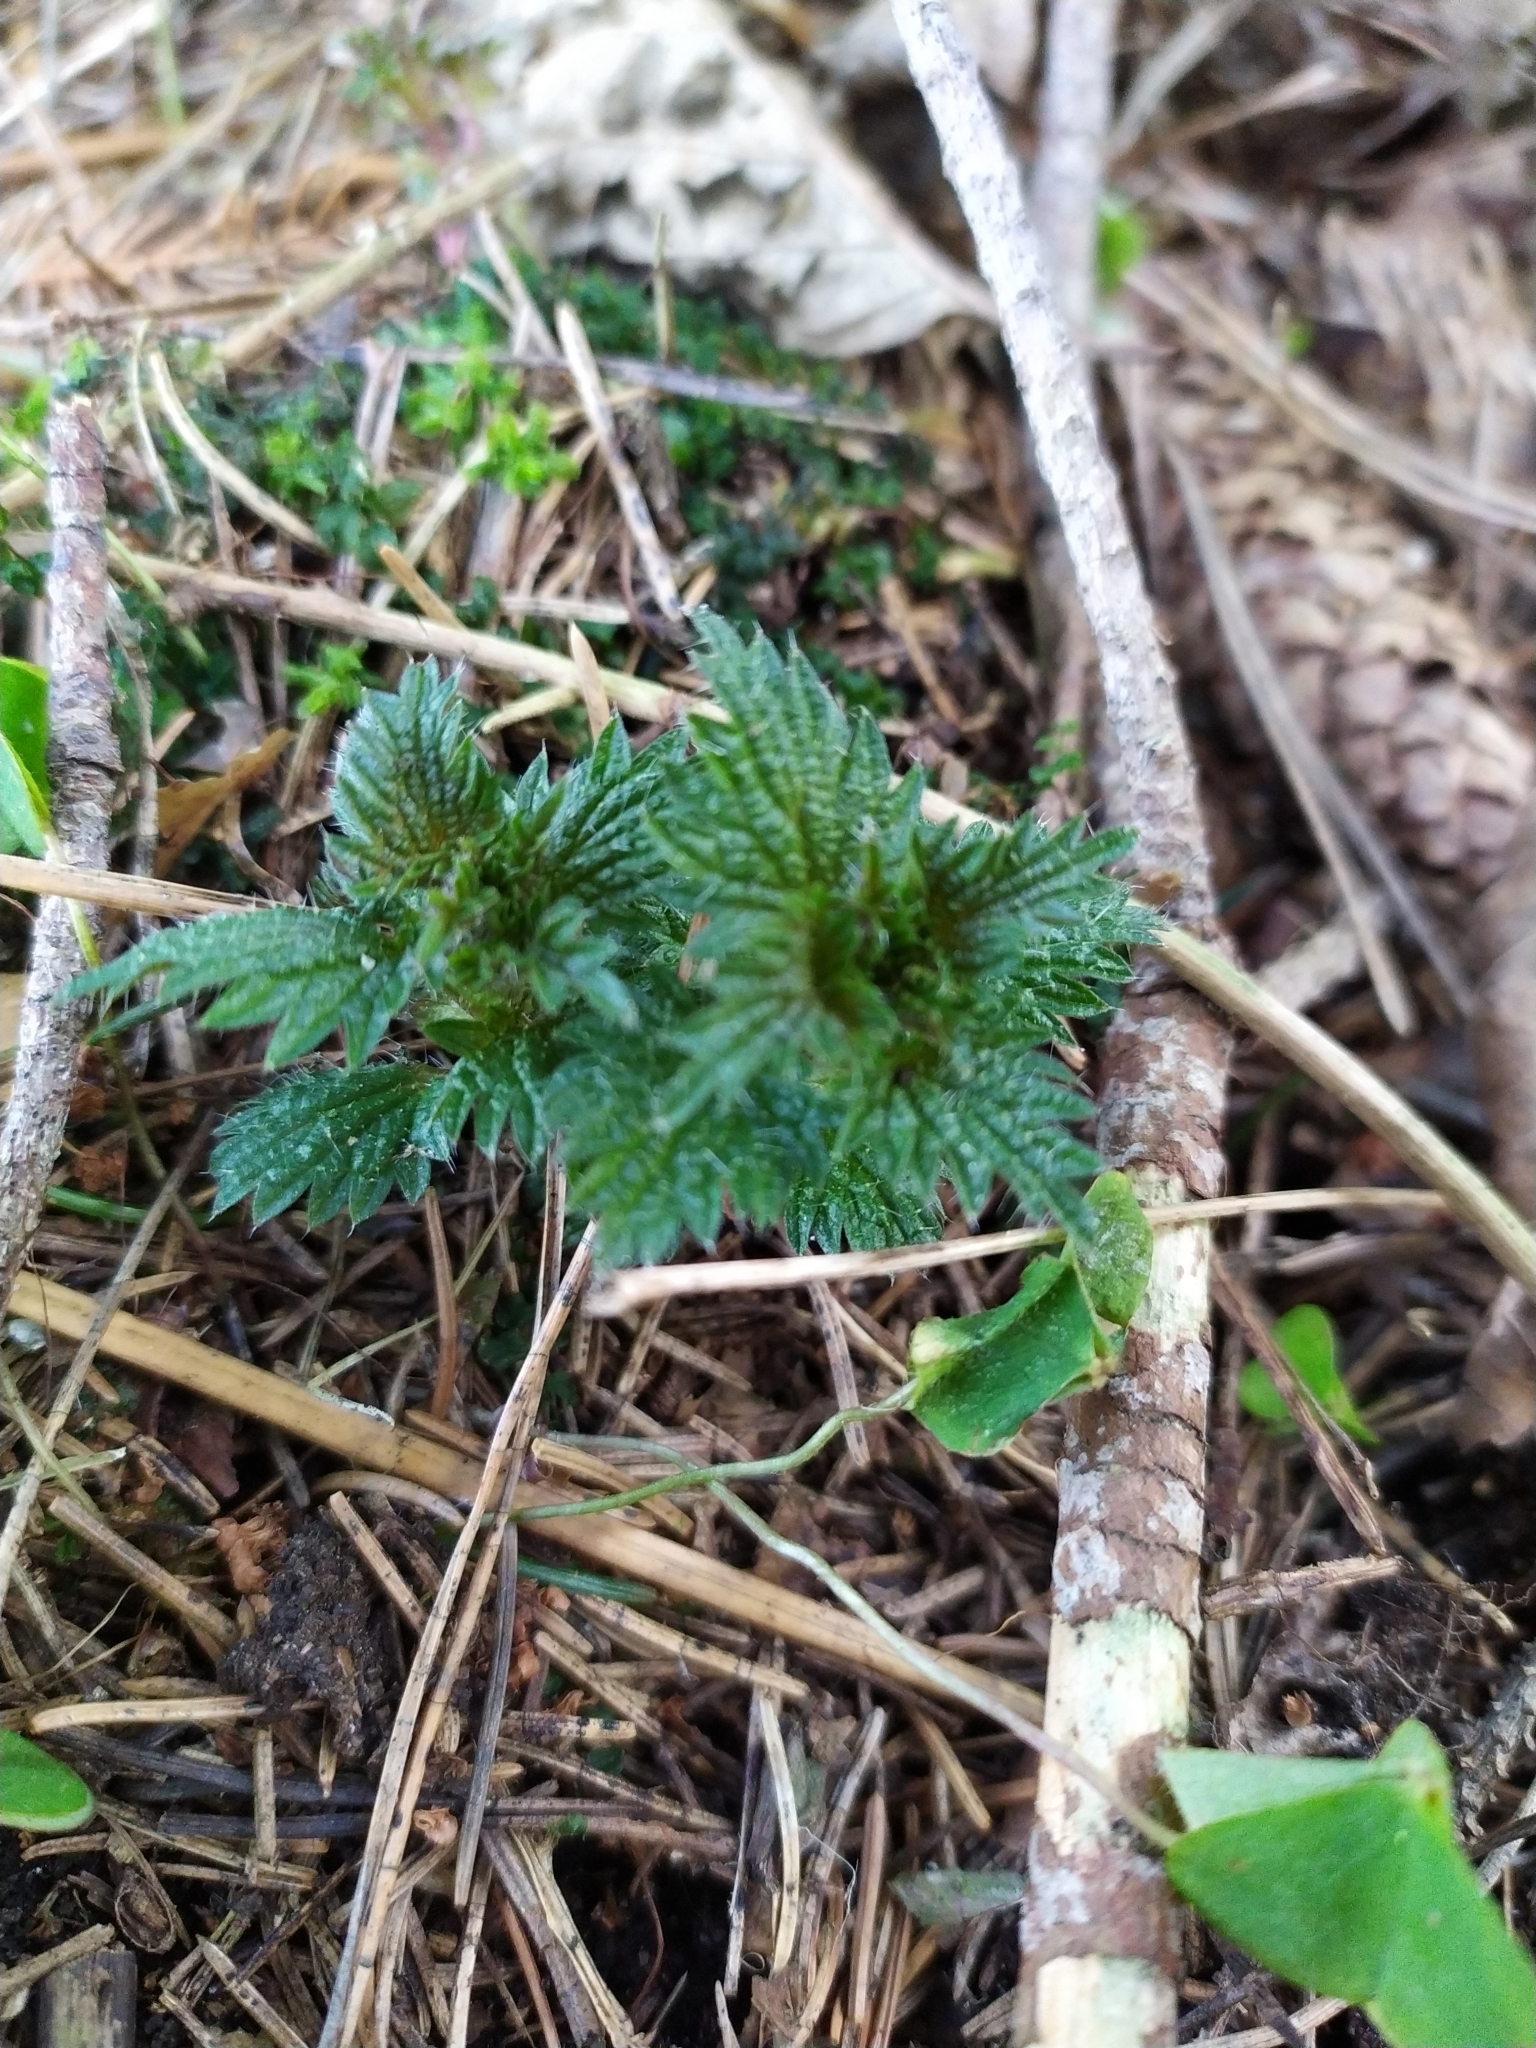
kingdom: Plantae
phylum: Tracheophyta
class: Magnoliopsida
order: Rosales
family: Urticaceae
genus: Urtica
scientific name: Urtica dioica
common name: Common nettle
